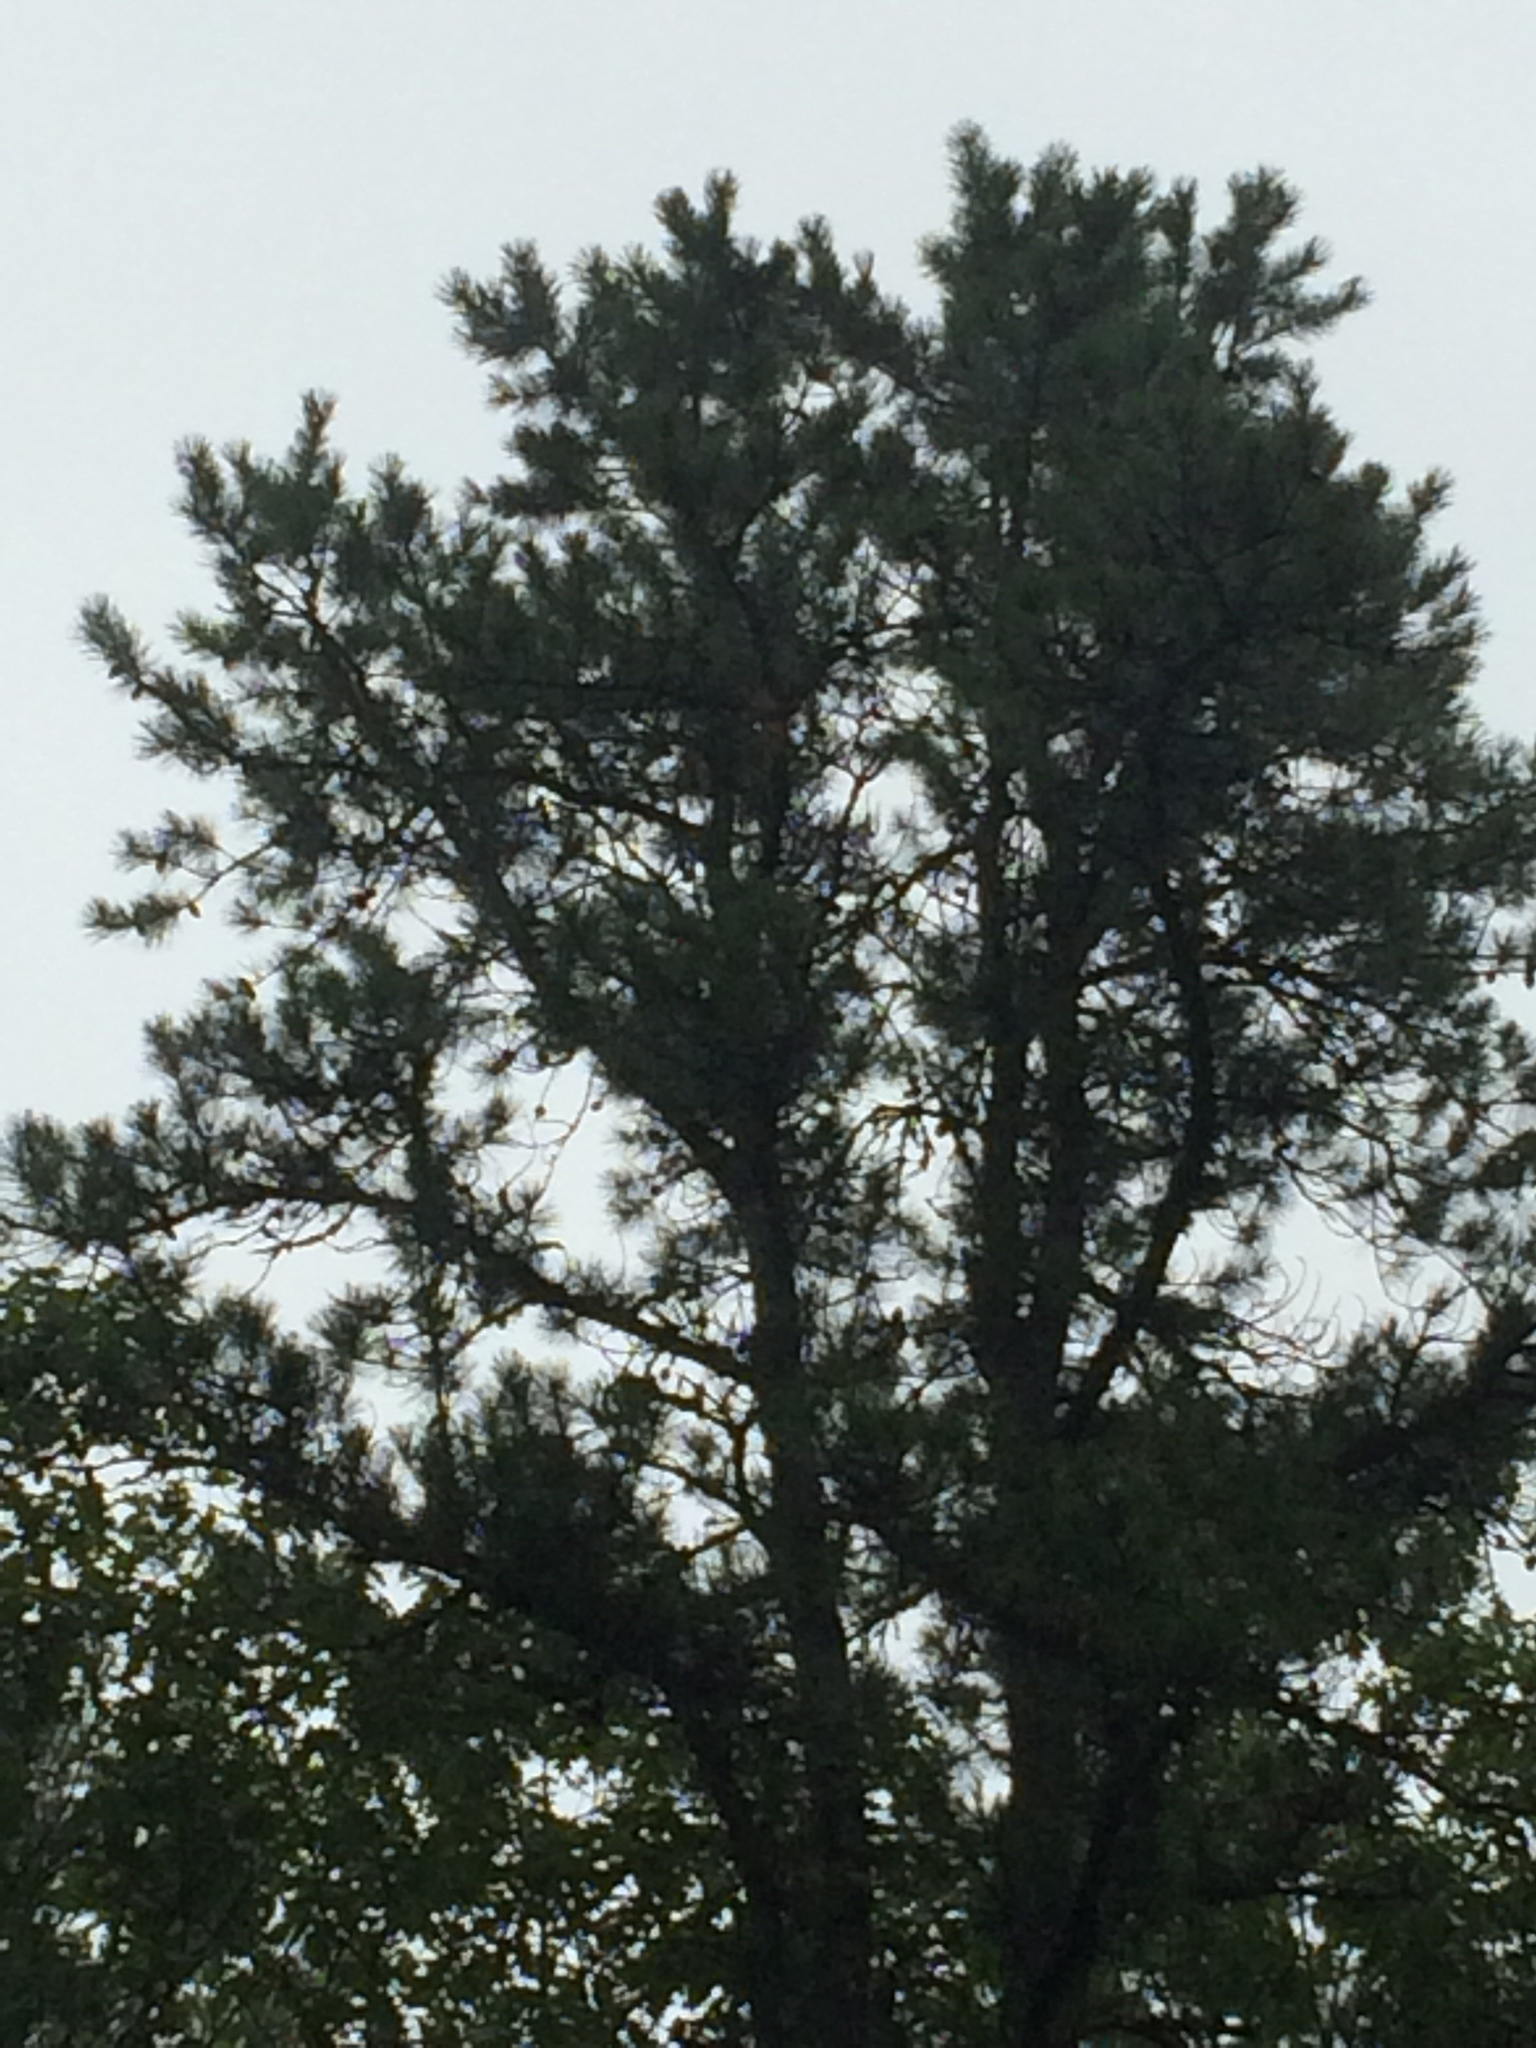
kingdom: Plantae
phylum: Tracheophyta
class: Pinopsida
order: Pinales
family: Pinaceae
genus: Pinus
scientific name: Pinus rigida
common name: Pitch pine
